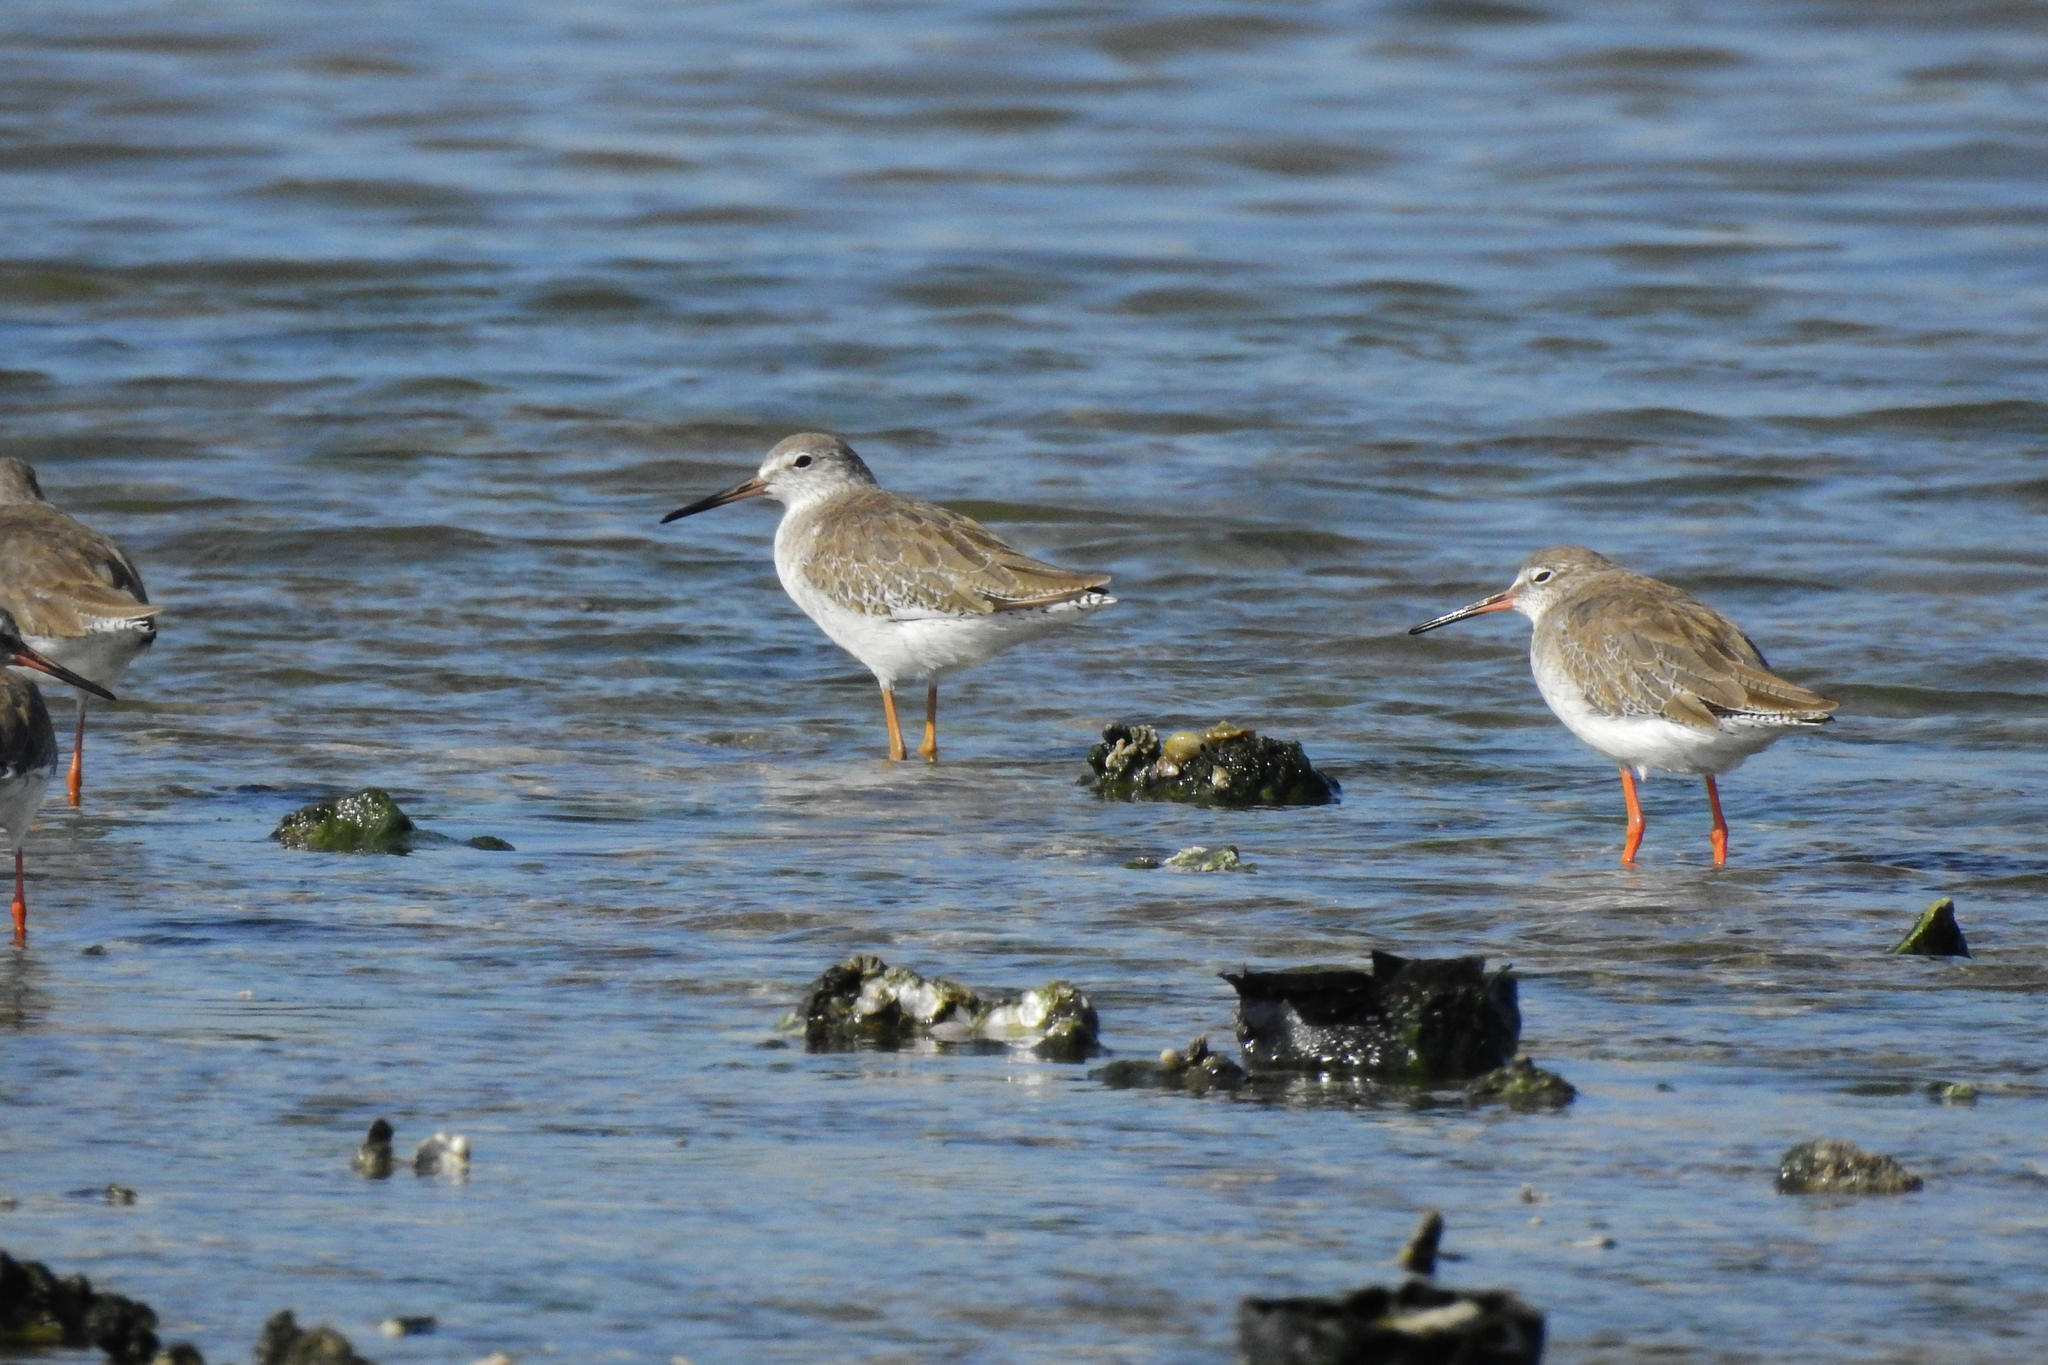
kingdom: Animalia
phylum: Chordata
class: Aves
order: Charadriiformes
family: Scolopacidae
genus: Tringa
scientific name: Tringa totanus
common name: Common redshank
